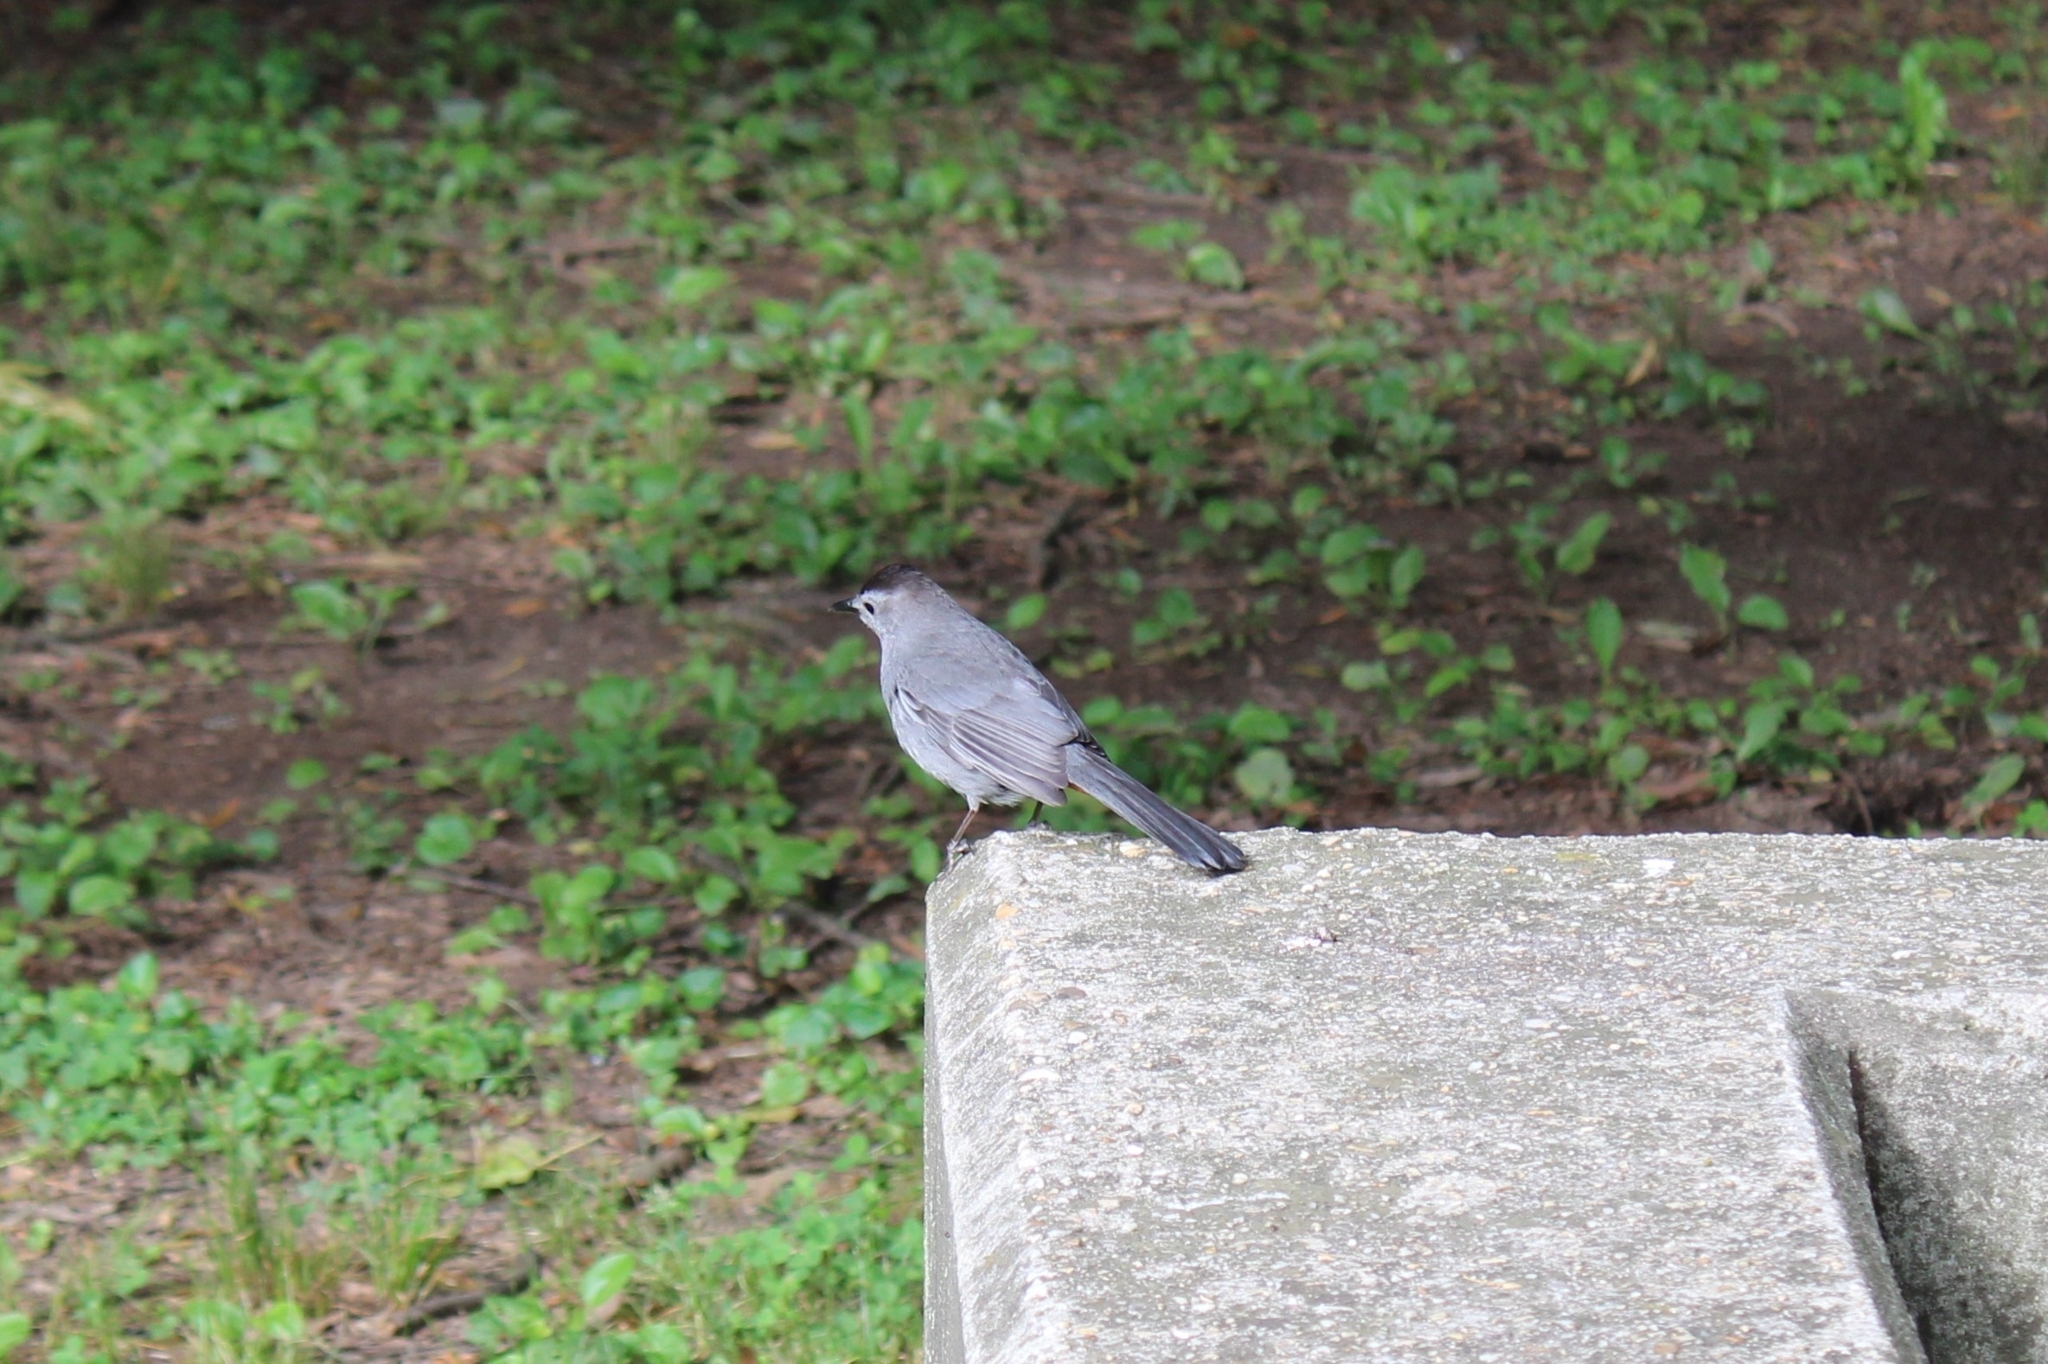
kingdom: Animalia
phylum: Chordata
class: Aves
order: Passeriformes
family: Mimidae
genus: Dumetella
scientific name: Dumetella carolinensis
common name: Gray catbird
